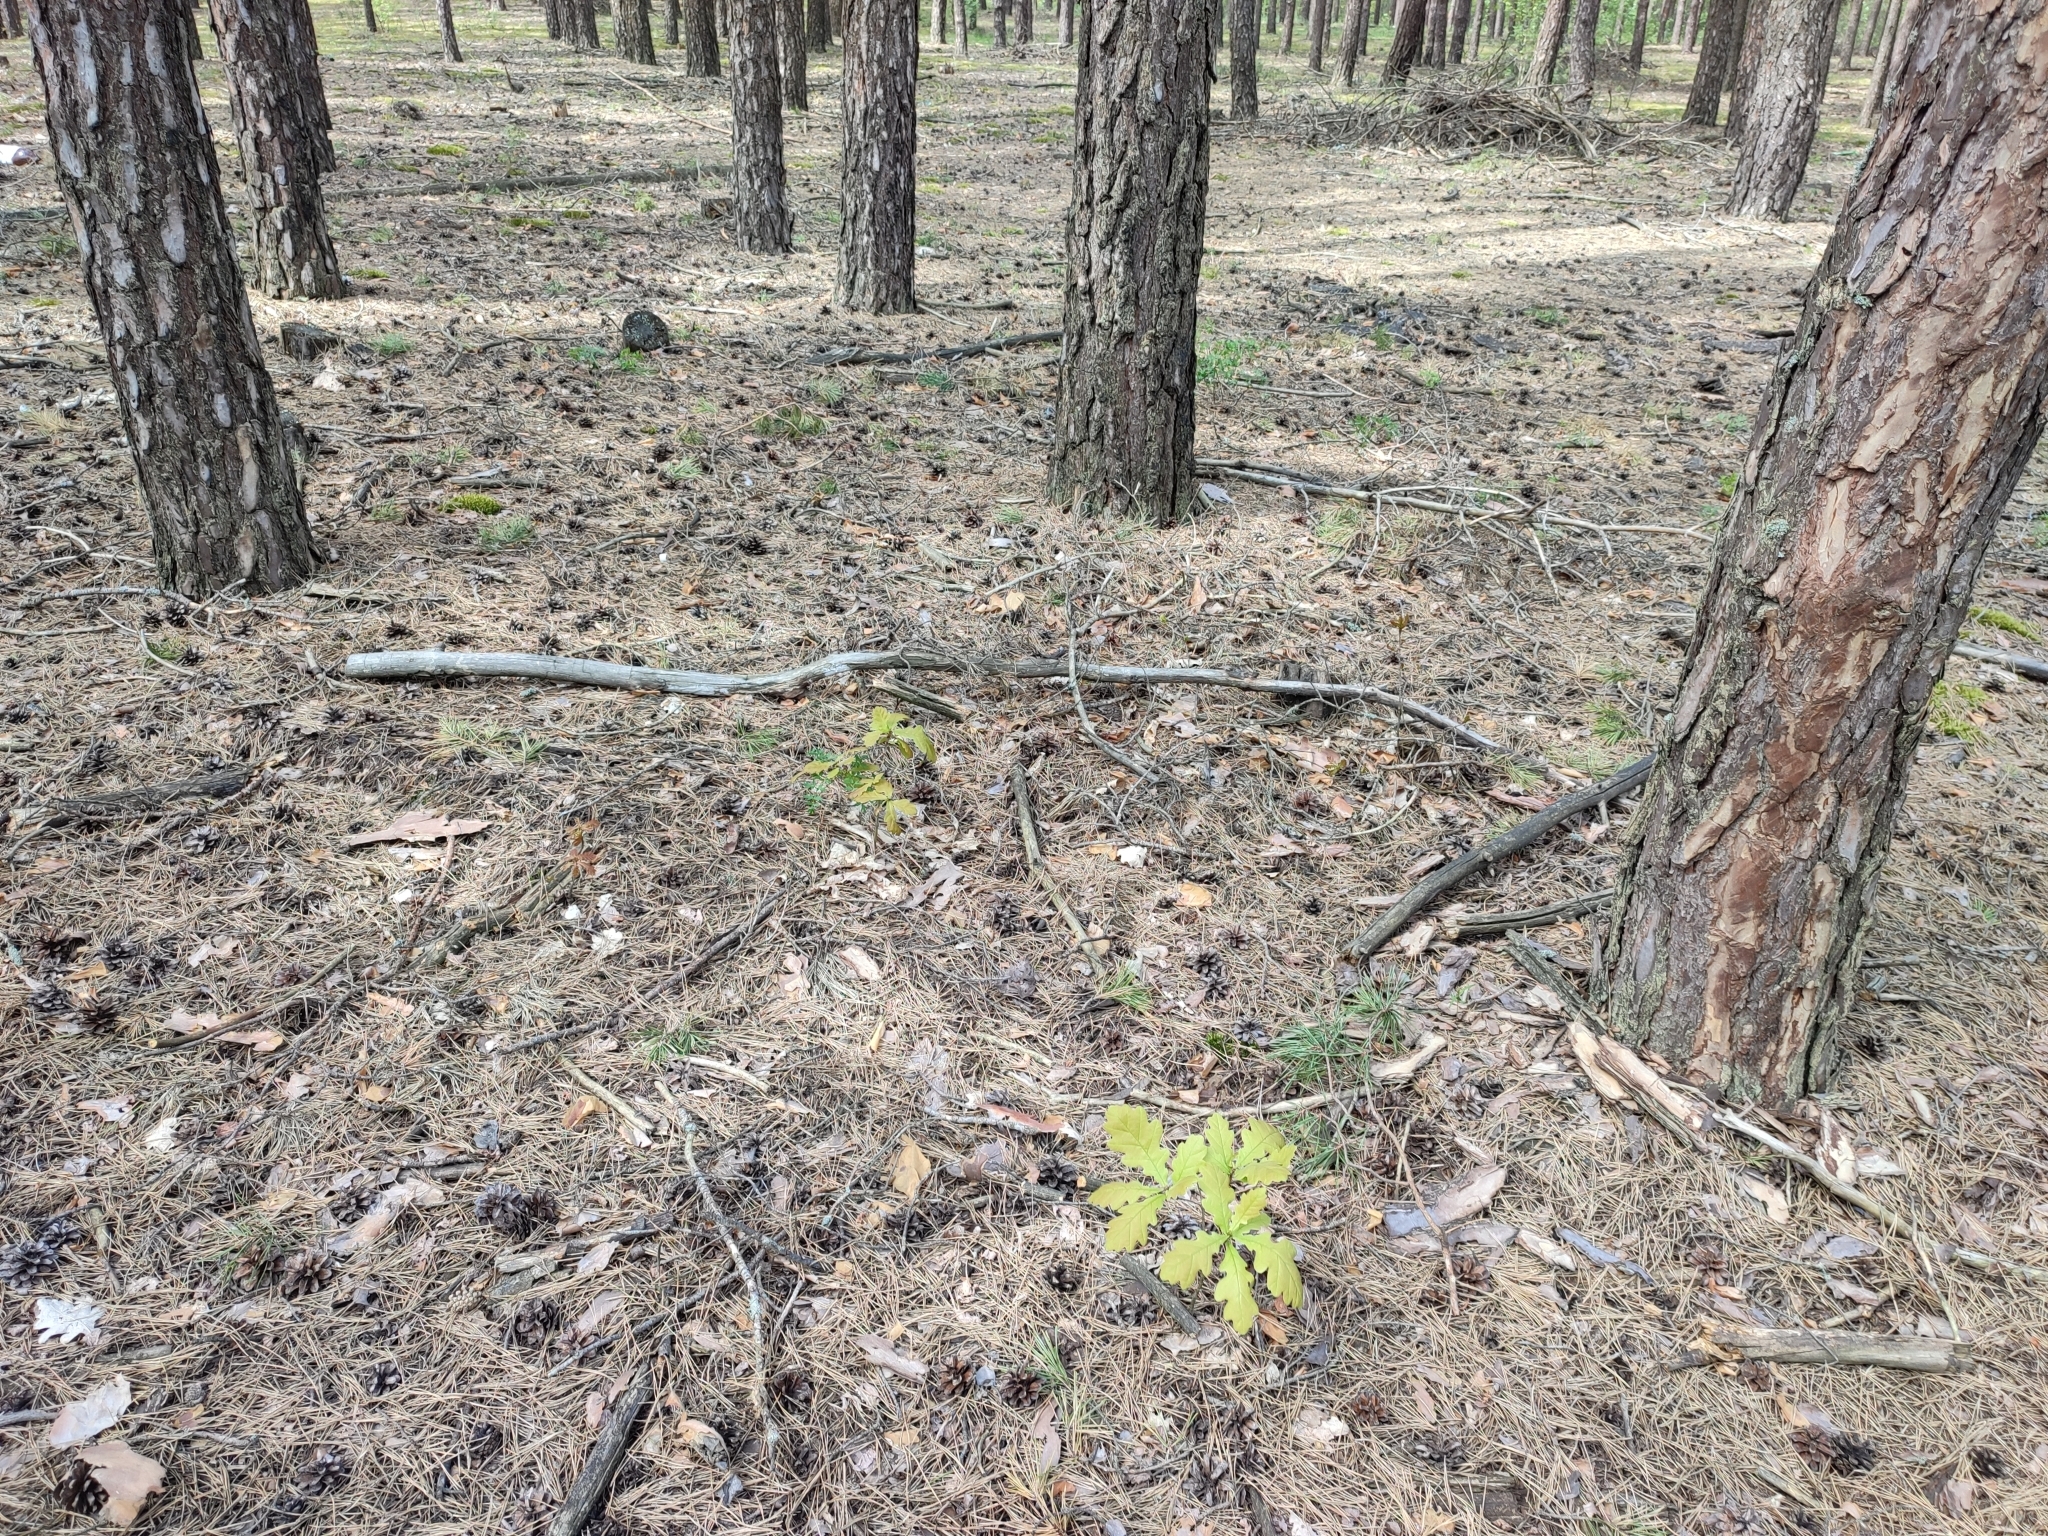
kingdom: Plantae
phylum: Tracheophyta
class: Magnoliopsida
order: Fagales
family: Fagaceae
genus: Quercus
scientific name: Quercus robur
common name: Pedunculate oak
